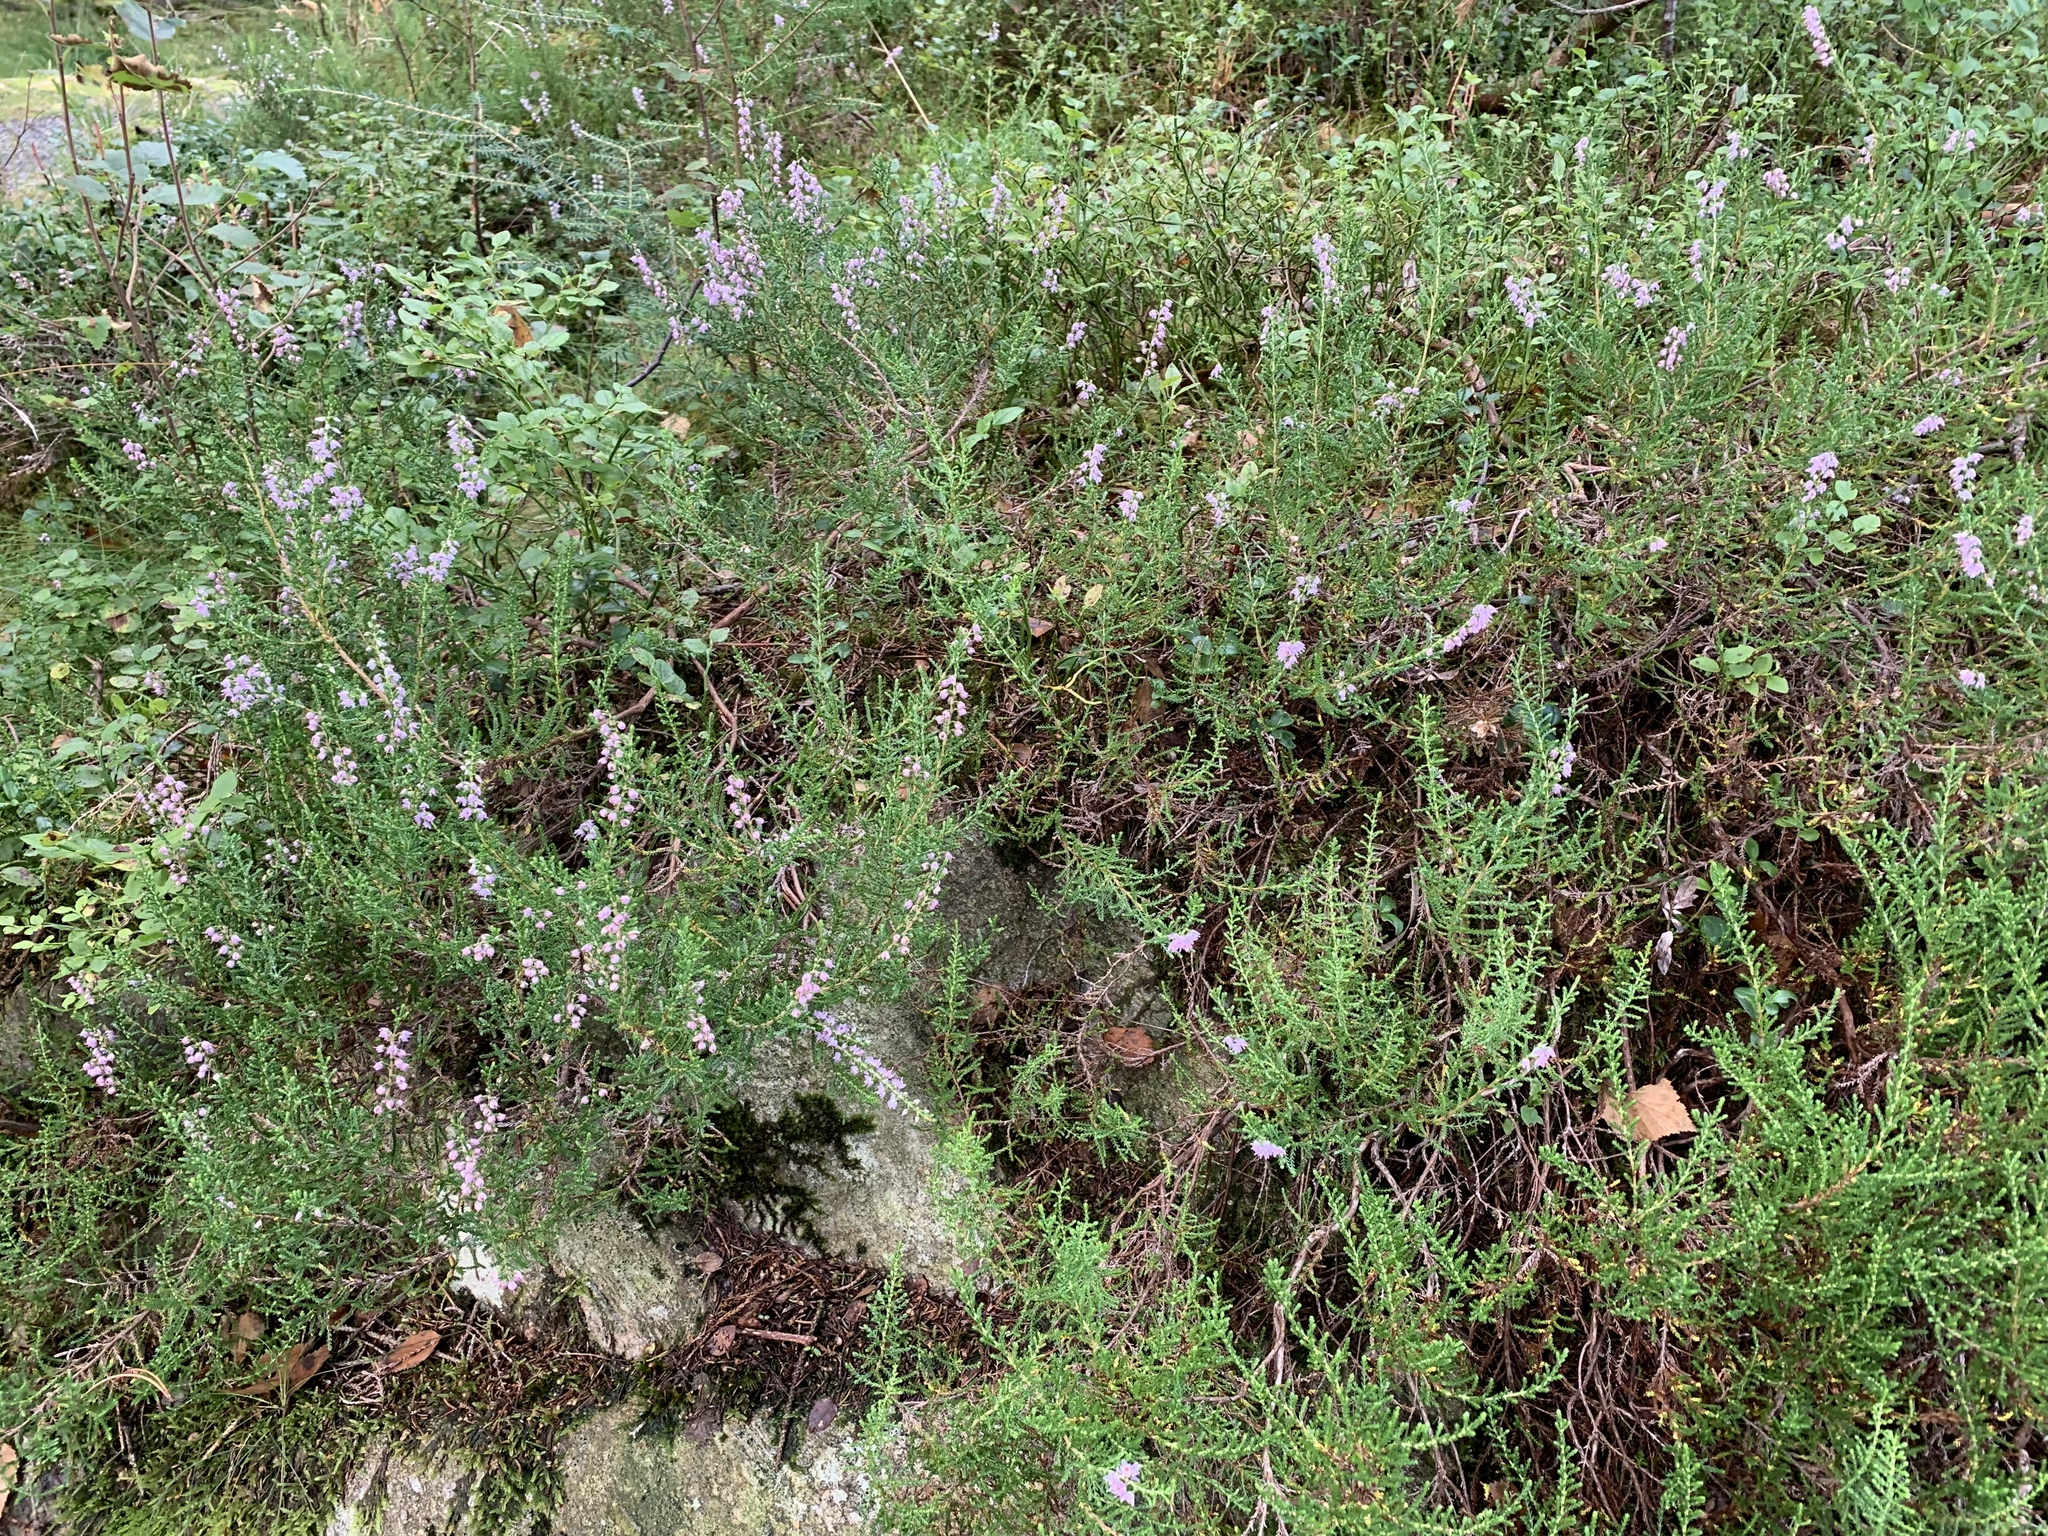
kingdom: Plantae
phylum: Tracheophyta
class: Magnoliopsida
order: Ericales
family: Ericaceae
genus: Calluna
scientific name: Calluna vulgaris
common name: Heather
